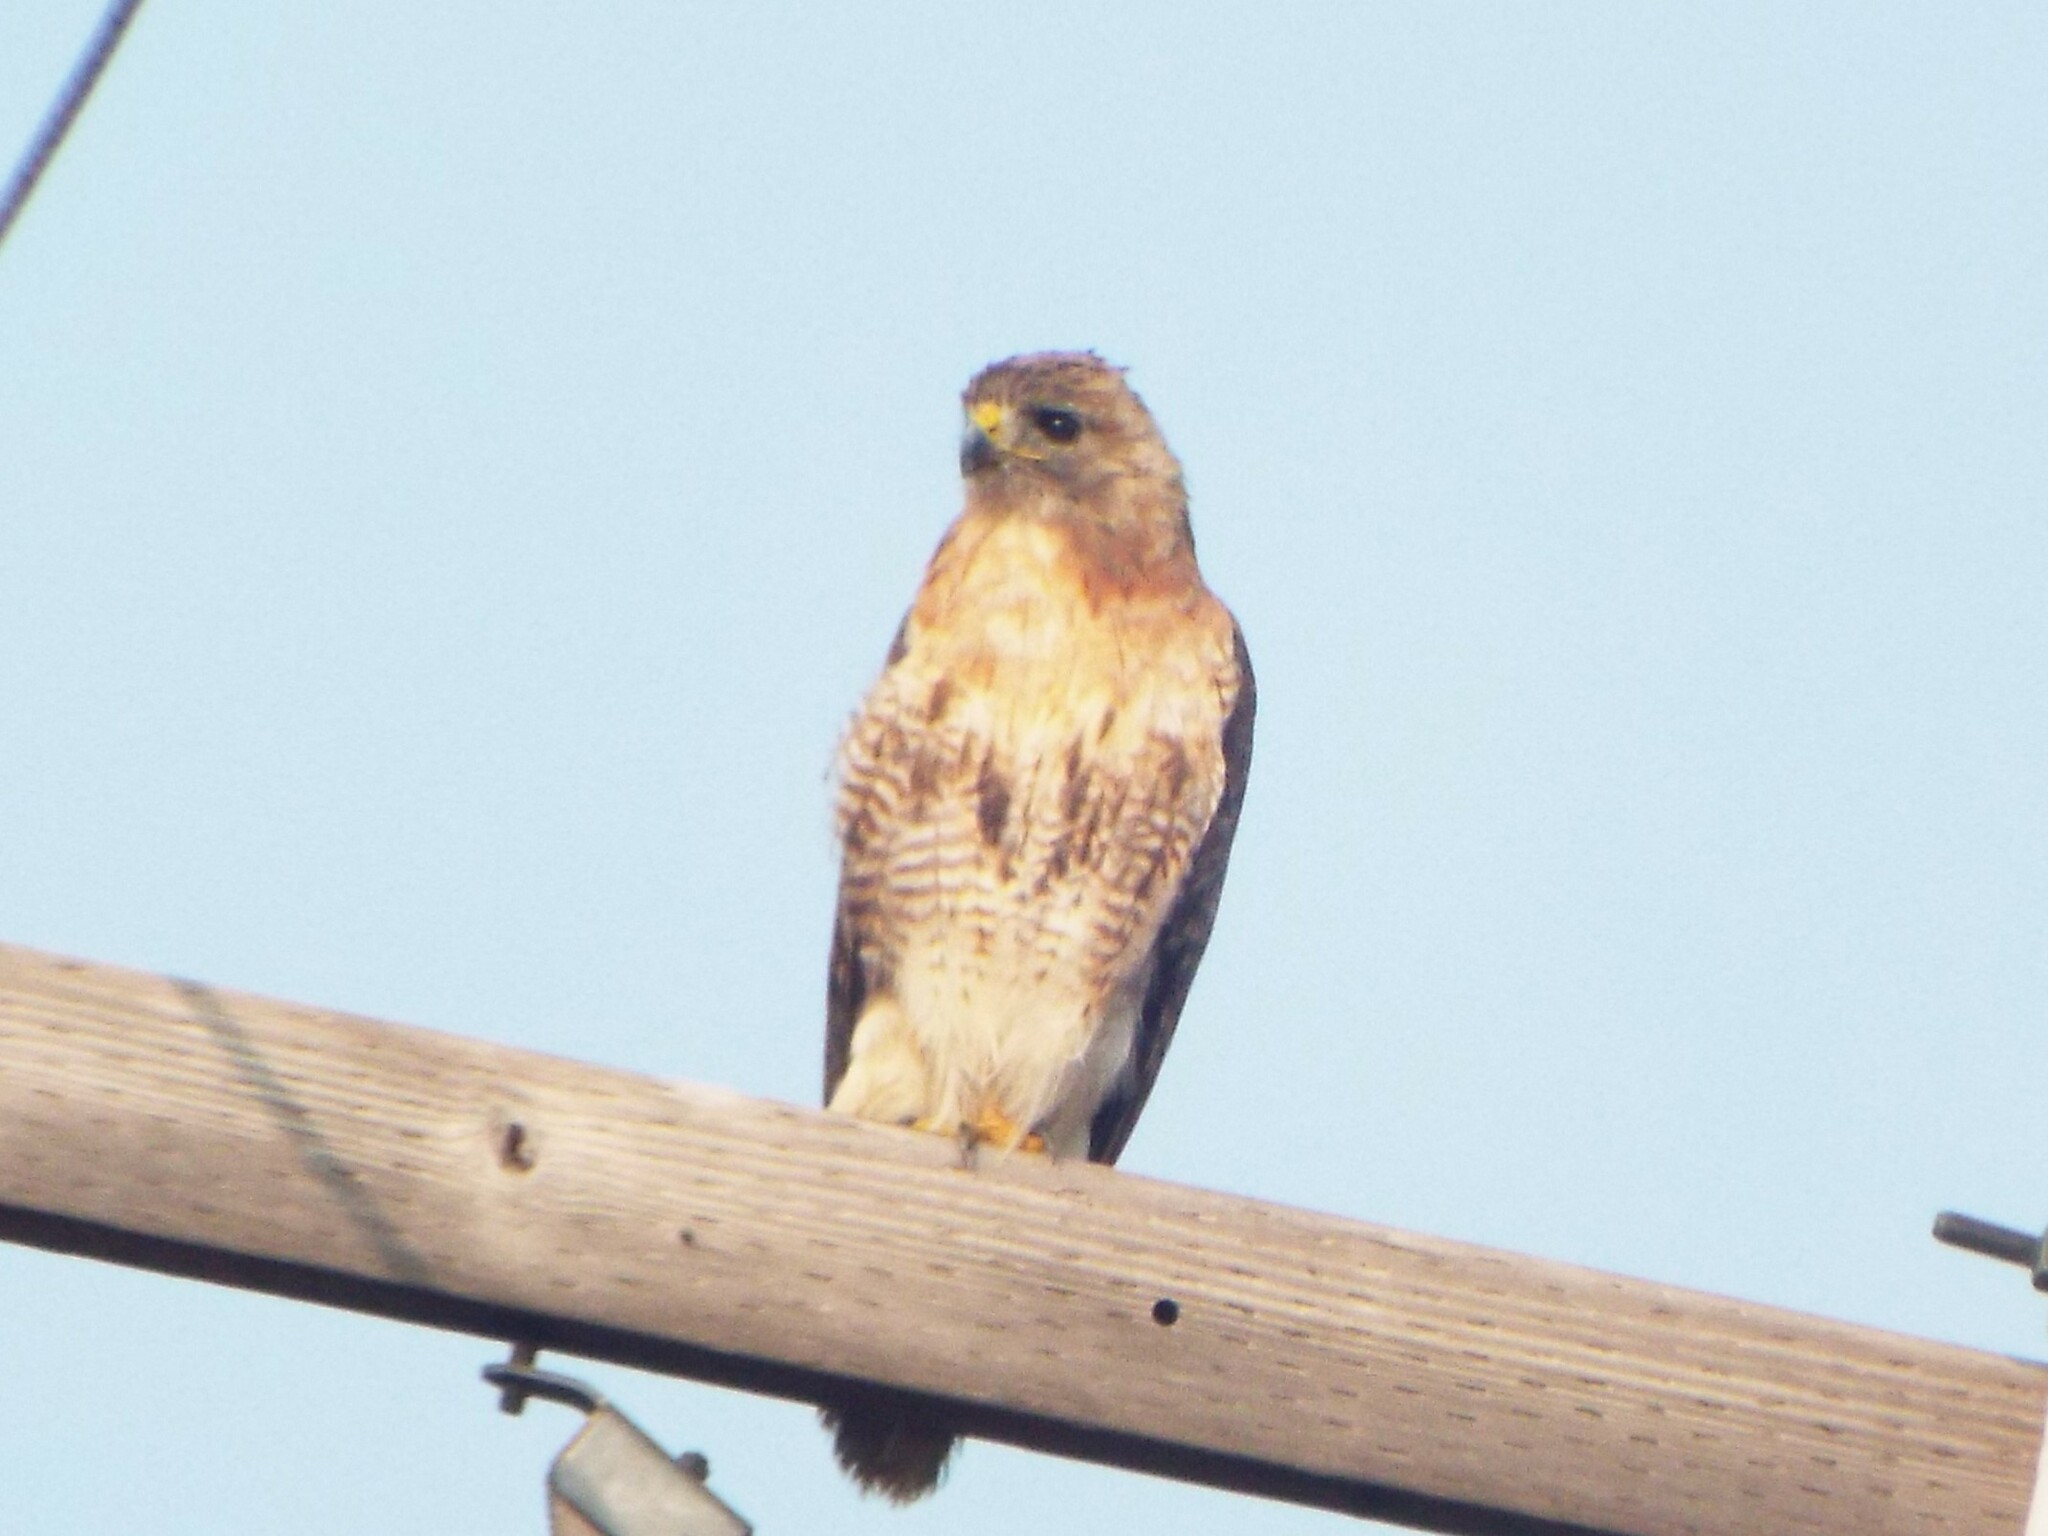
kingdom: Animalia
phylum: Chordata
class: Aves
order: Accipitriformes
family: Accipitridae
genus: Buteo
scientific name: Buteo jamaicensis
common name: Red-tailed hawk
